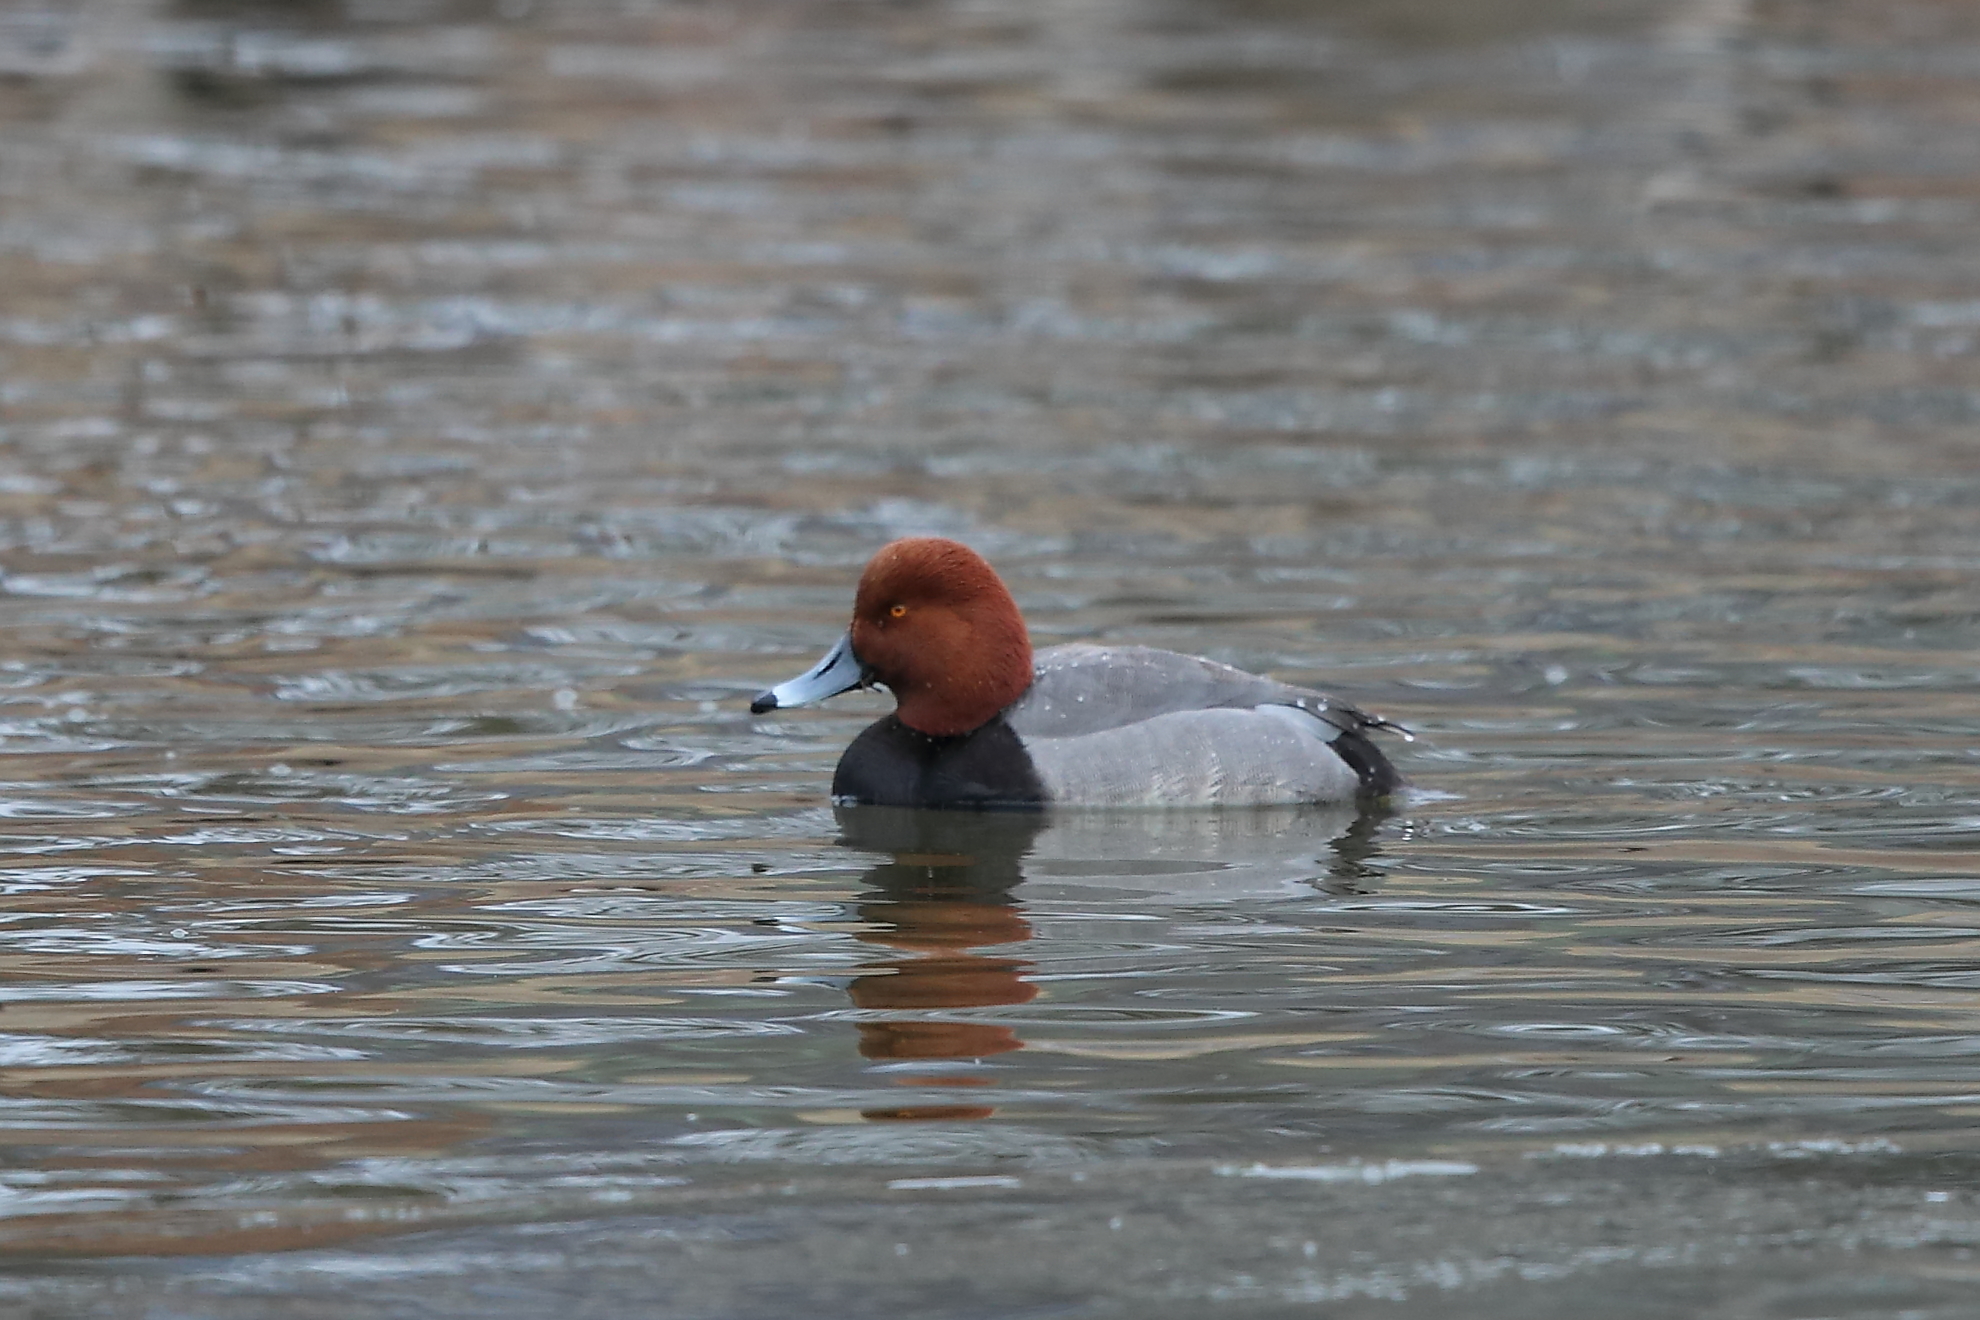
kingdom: Animalia
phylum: Chordata
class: Aves
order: Anseriformes
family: Anatidae
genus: Aythya
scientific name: Aythya americana
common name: Redhead
